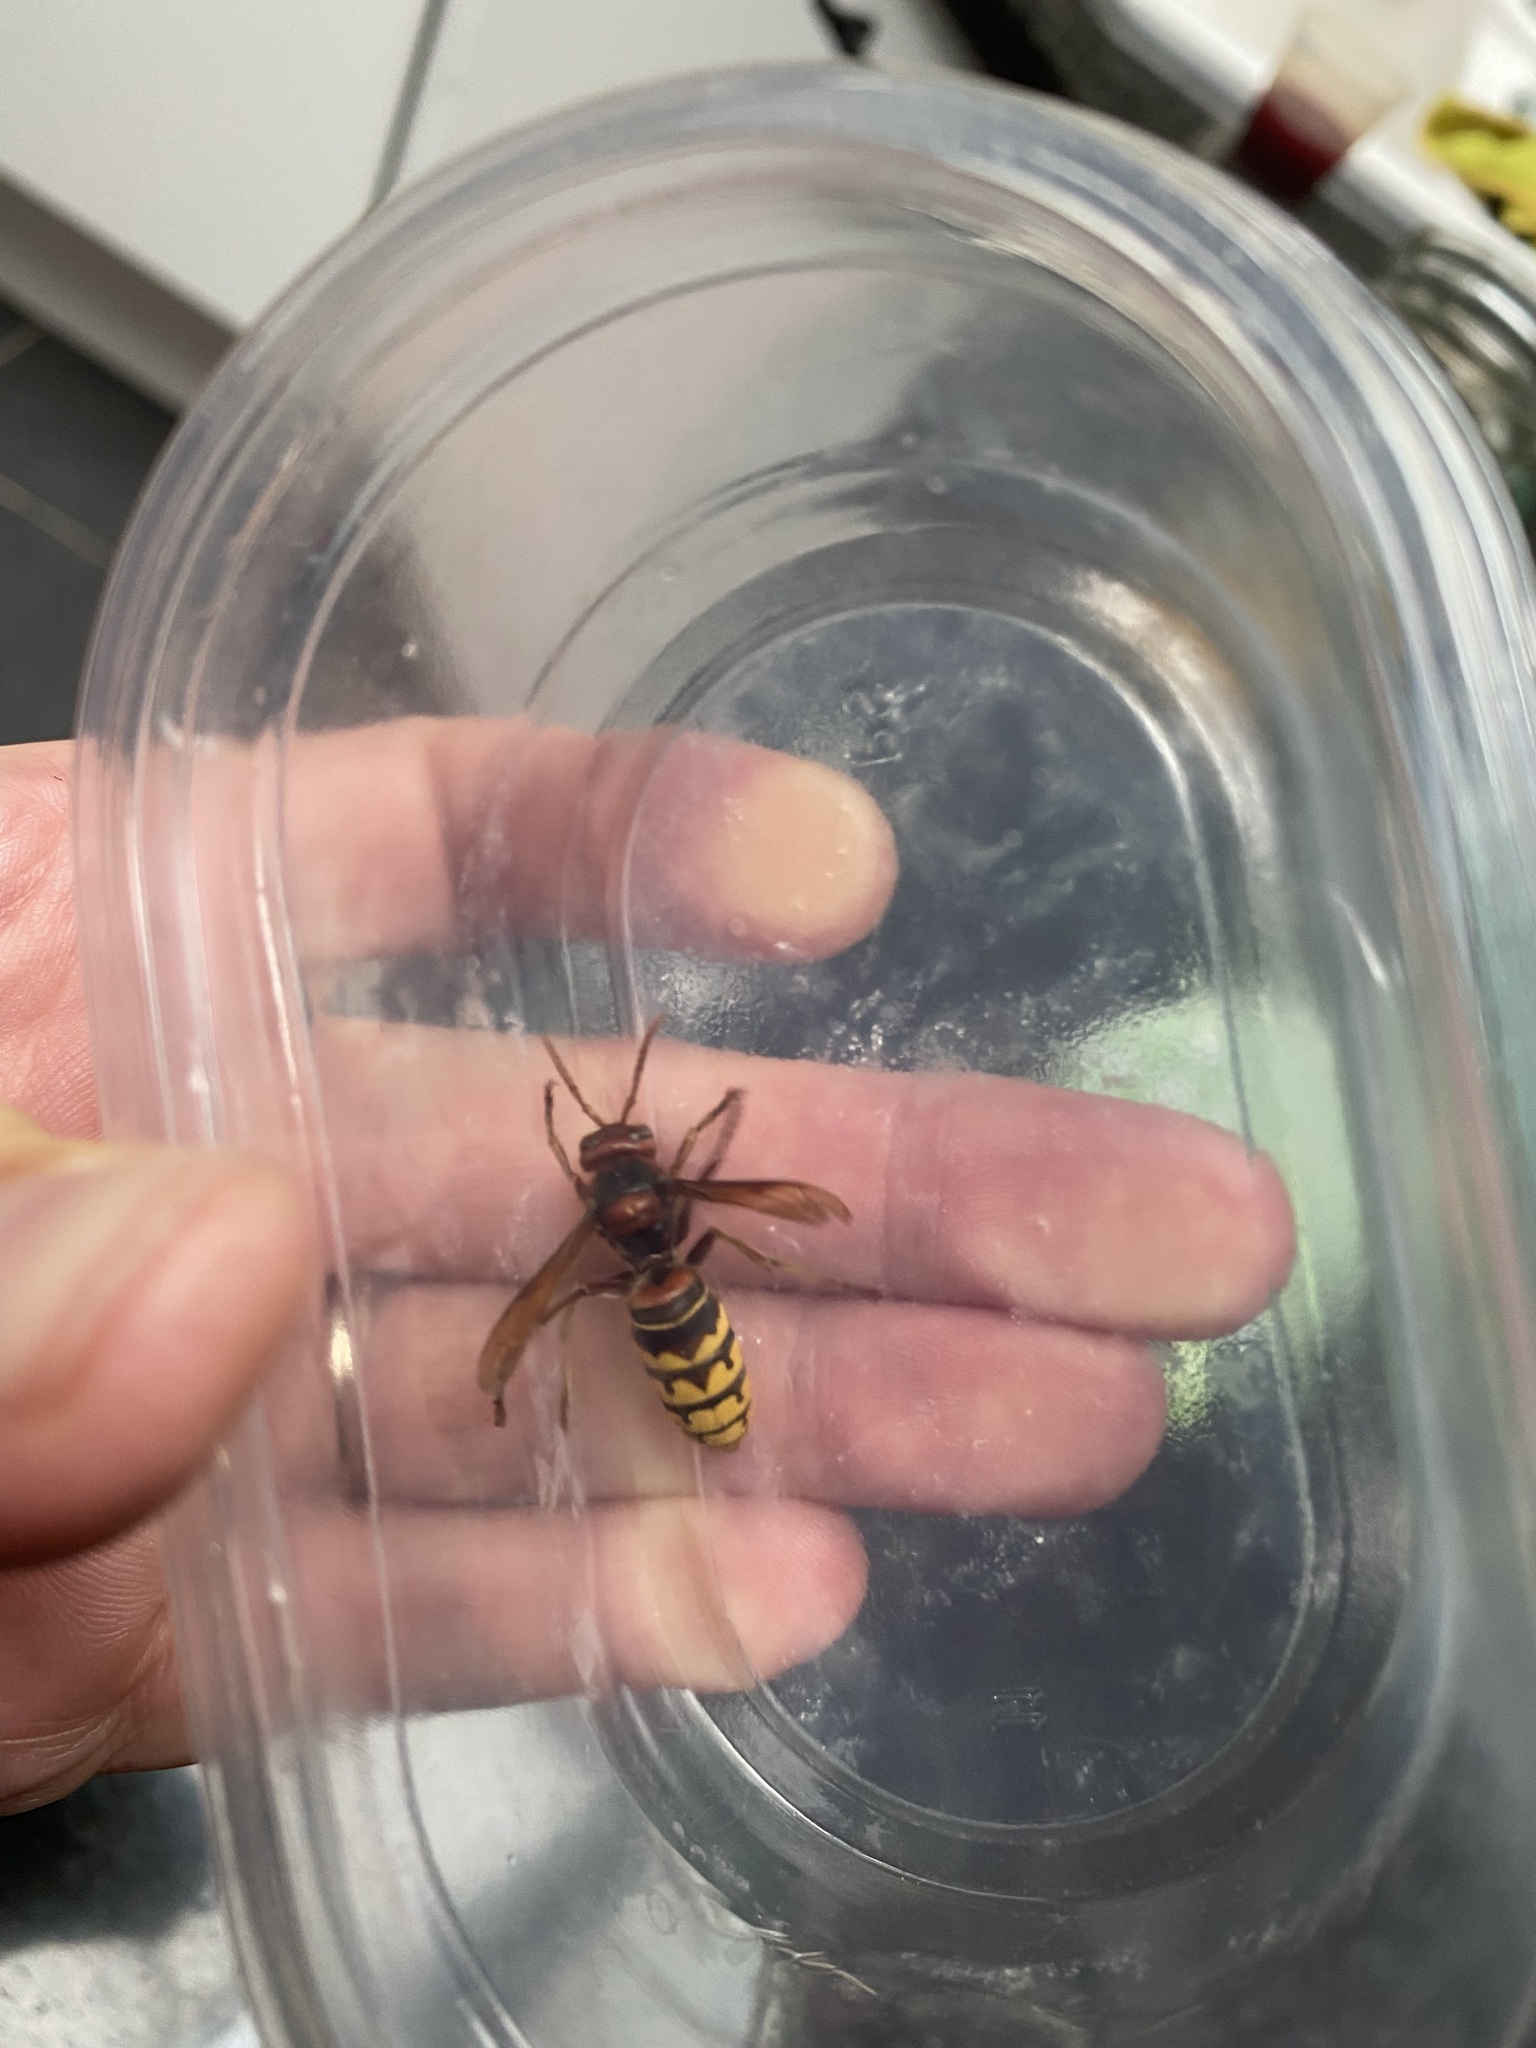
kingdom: Animalia
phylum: Arthropoda
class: Insecta
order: Hymenoptera
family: Vespidae
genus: Vespa
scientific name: Vespa crabro
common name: Hornet
